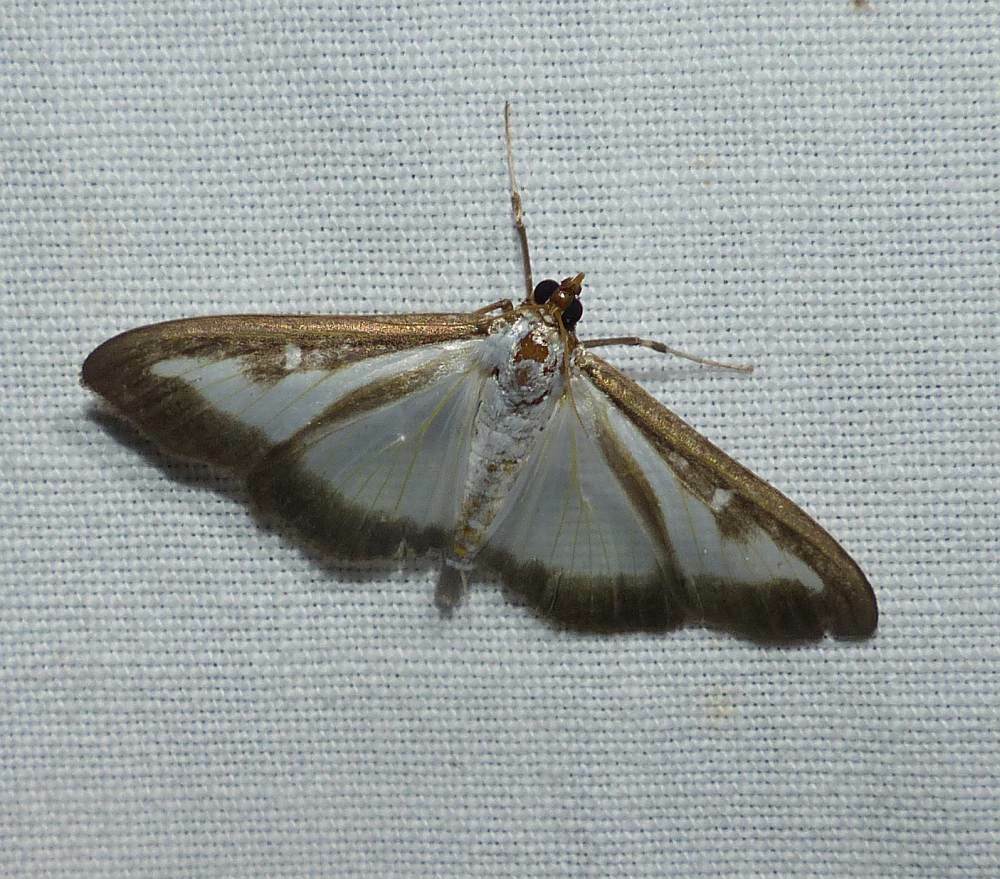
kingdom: Animalia
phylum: Arthropoda
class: Insecta
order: Lepidoptera
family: Crambidae
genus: Cydalima
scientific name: Cydalima perspectalis
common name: Box tree moth
